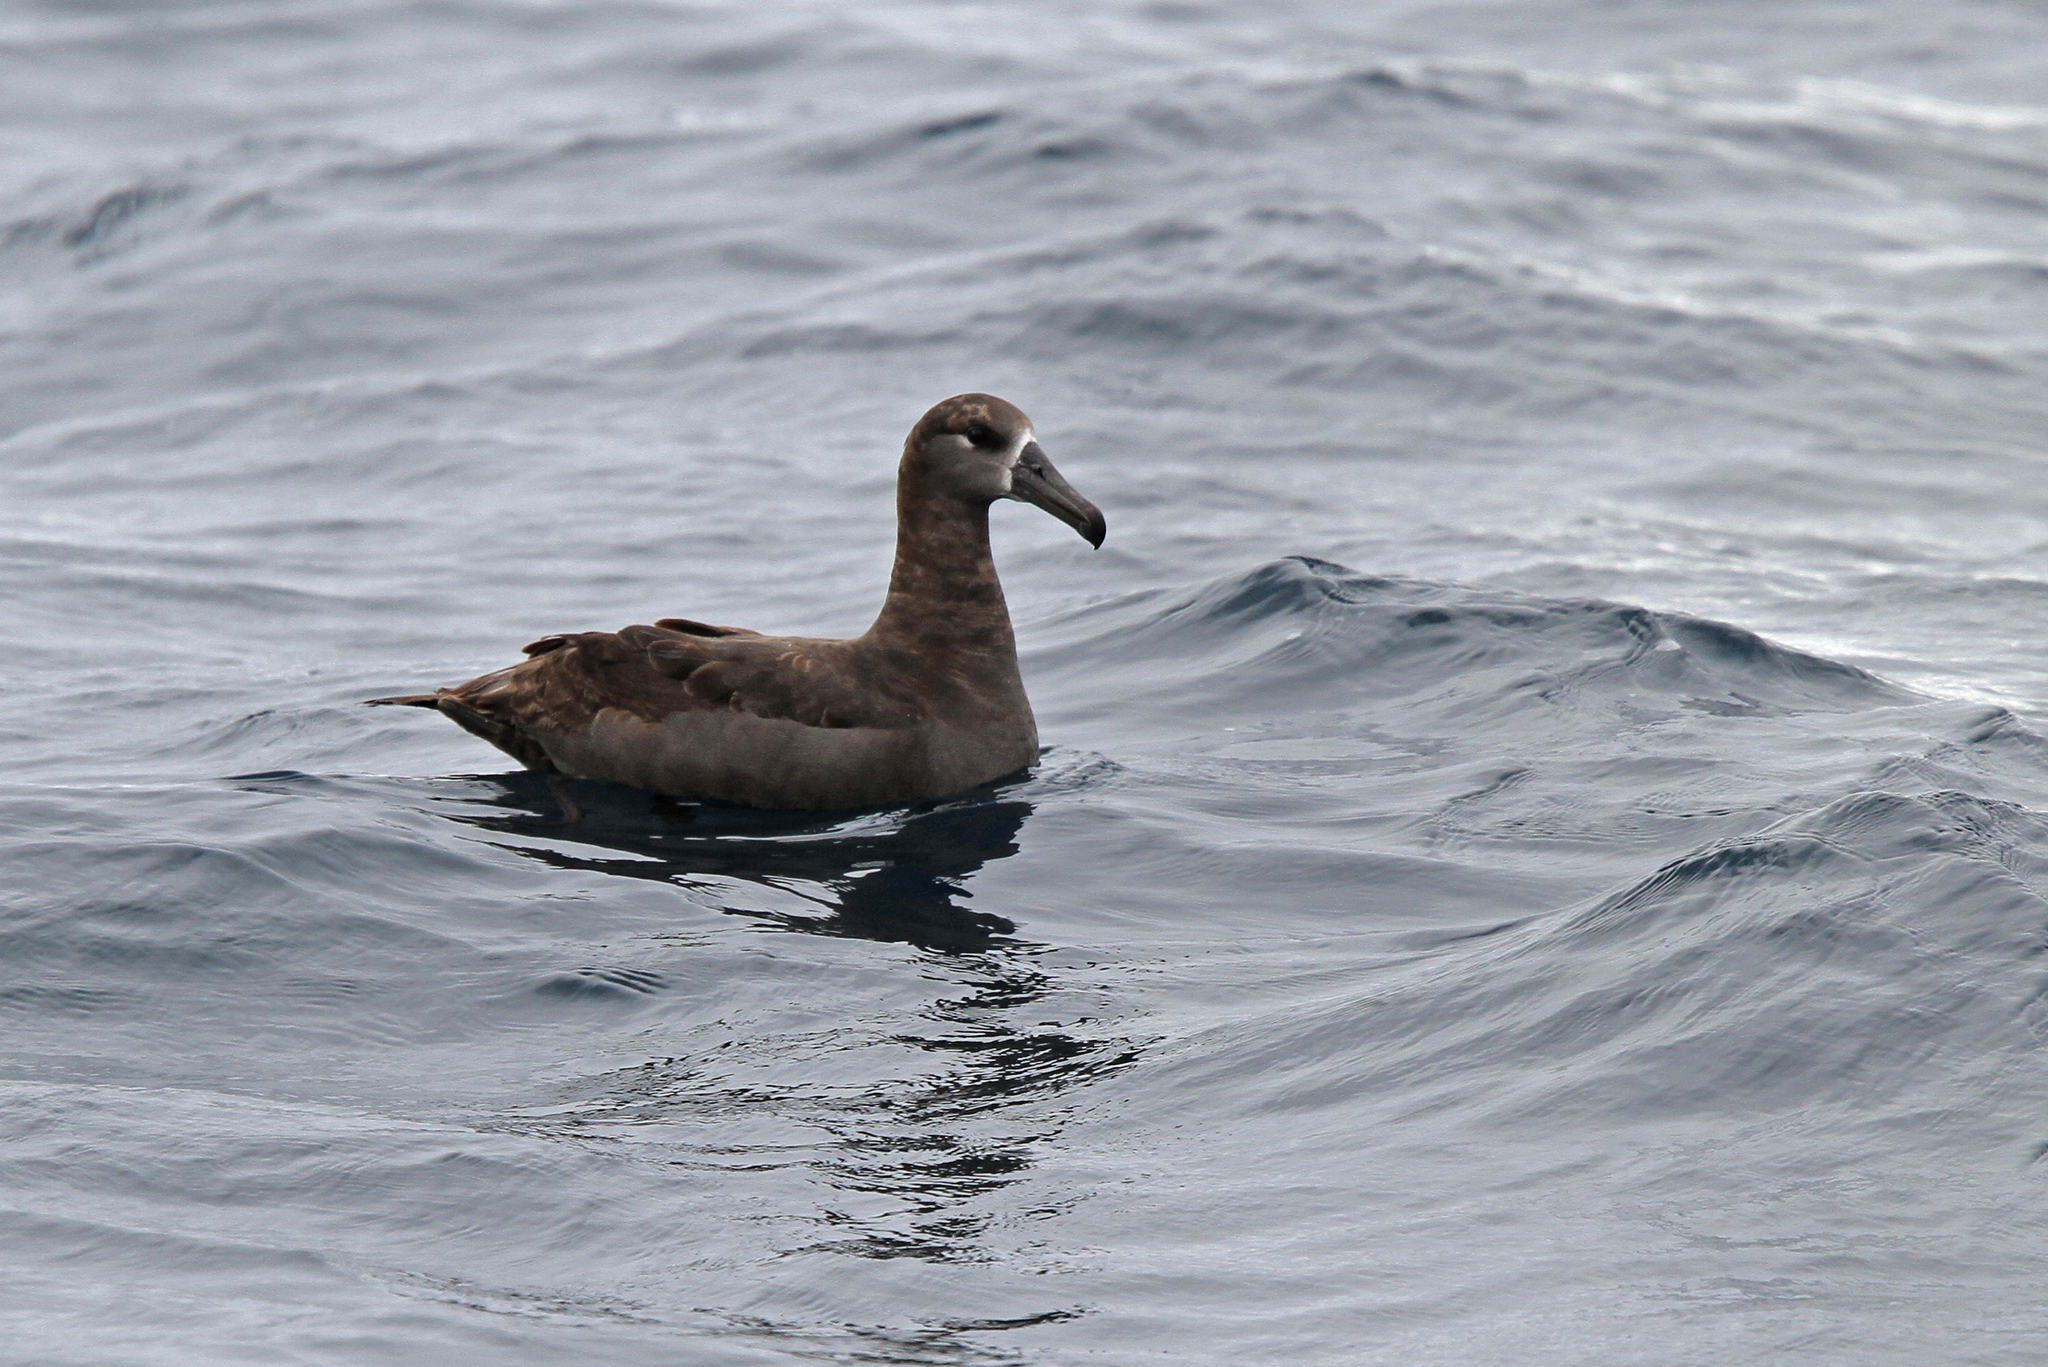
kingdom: Animalia
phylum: Chordata
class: Aves
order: Procellariiformes
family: Diomedeidae
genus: Phoebastria
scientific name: Phoebastria nigripes
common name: Black-footed albatross
